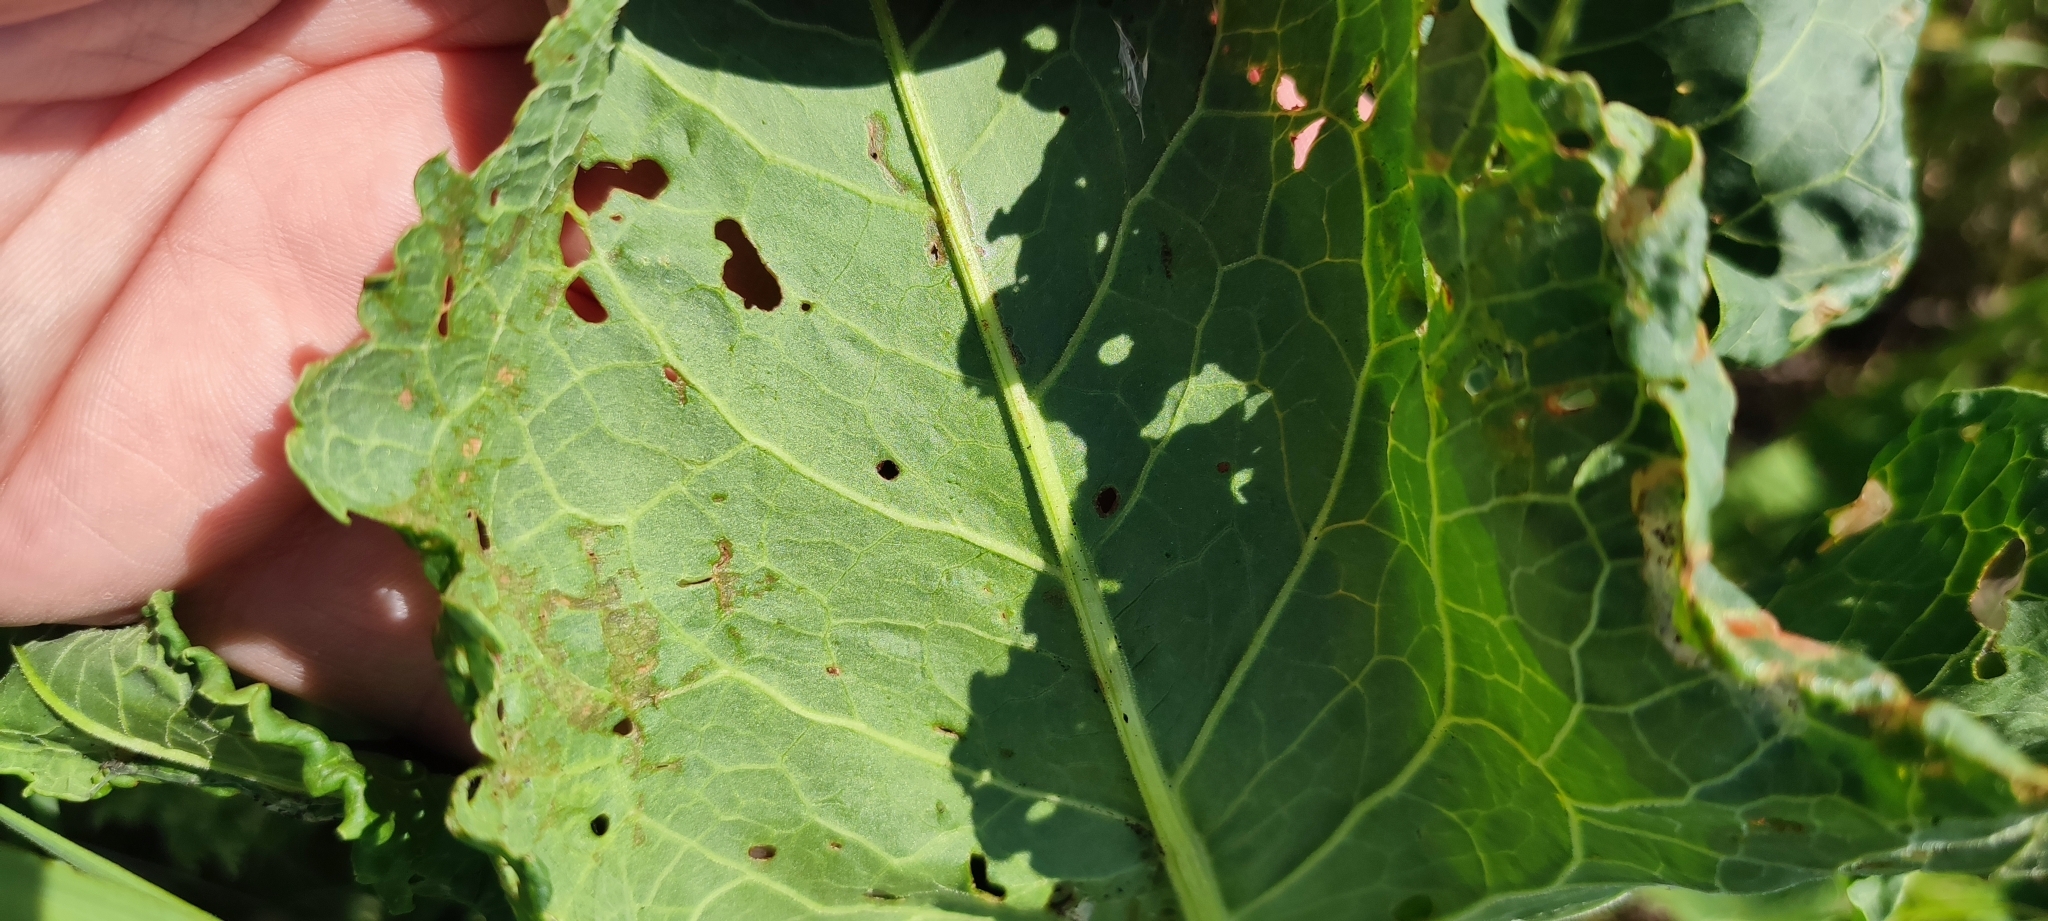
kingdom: Plantae
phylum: Tracheophyta
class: Magnoliopsida
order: Caryophyllales
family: Polygonaceae
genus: Rumex
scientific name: Rumex confertus
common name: Russian dock
